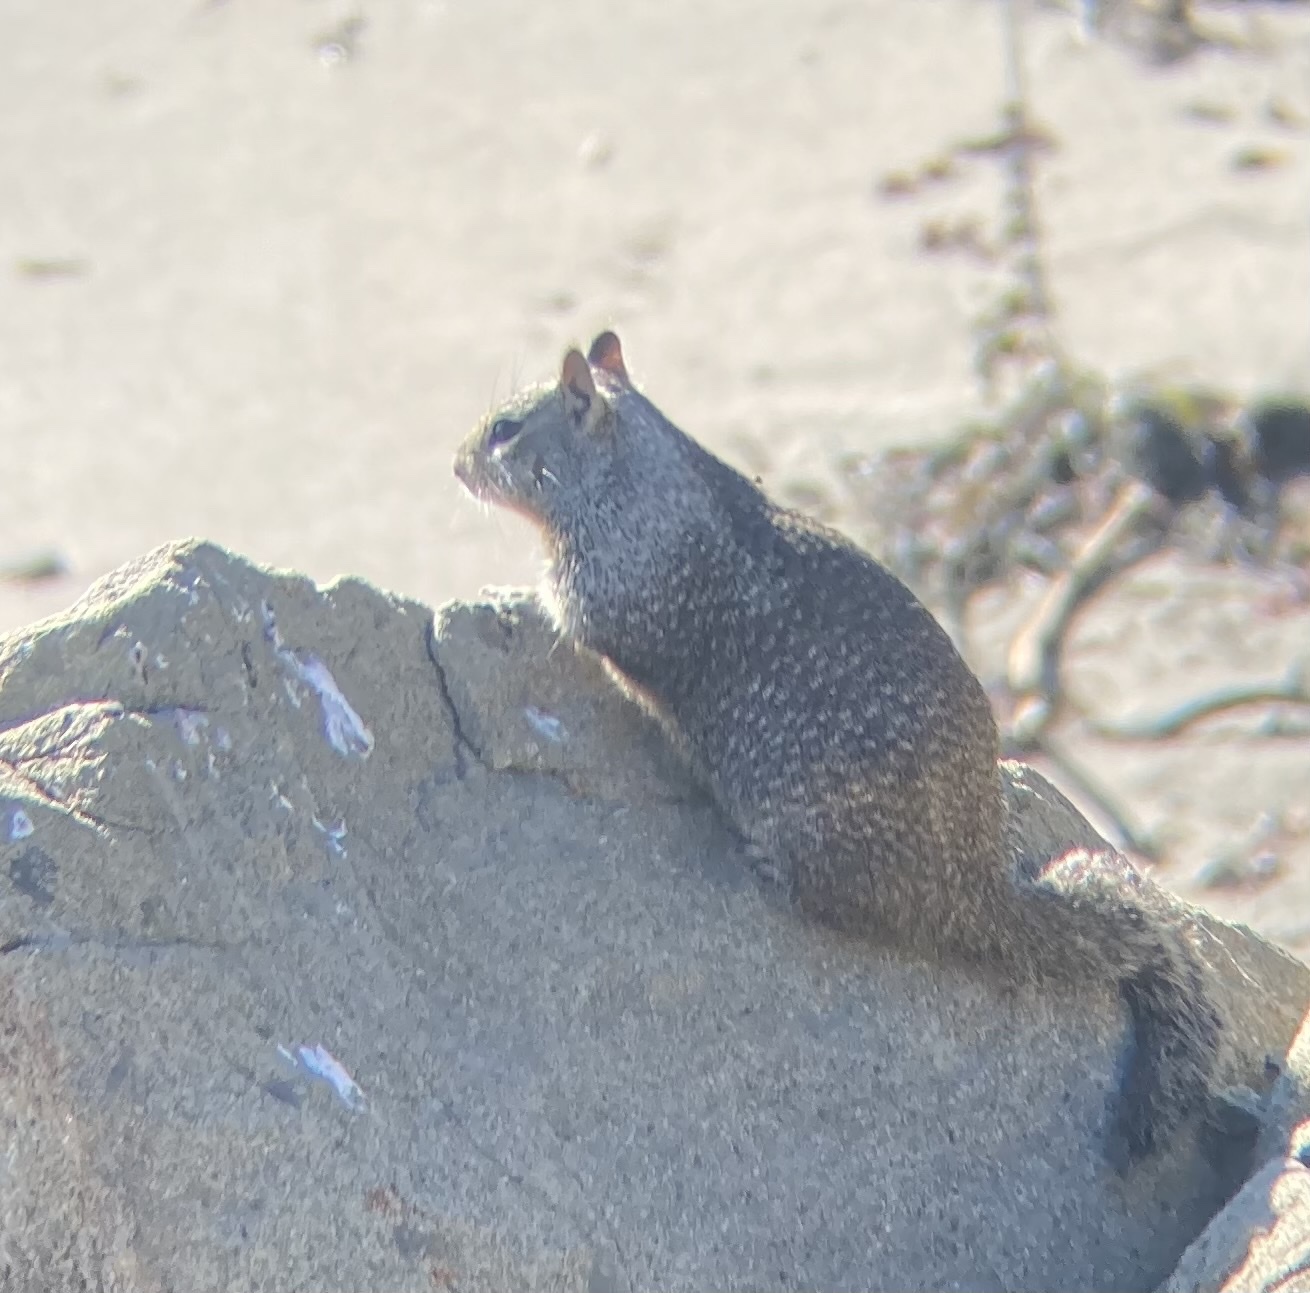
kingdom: Animalia
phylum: Chordata
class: Mammalia
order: Rodentia
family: Sciuridae
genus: Otospermophilus
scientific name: Otospermophilus beecheyi
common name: California ground squirrel
